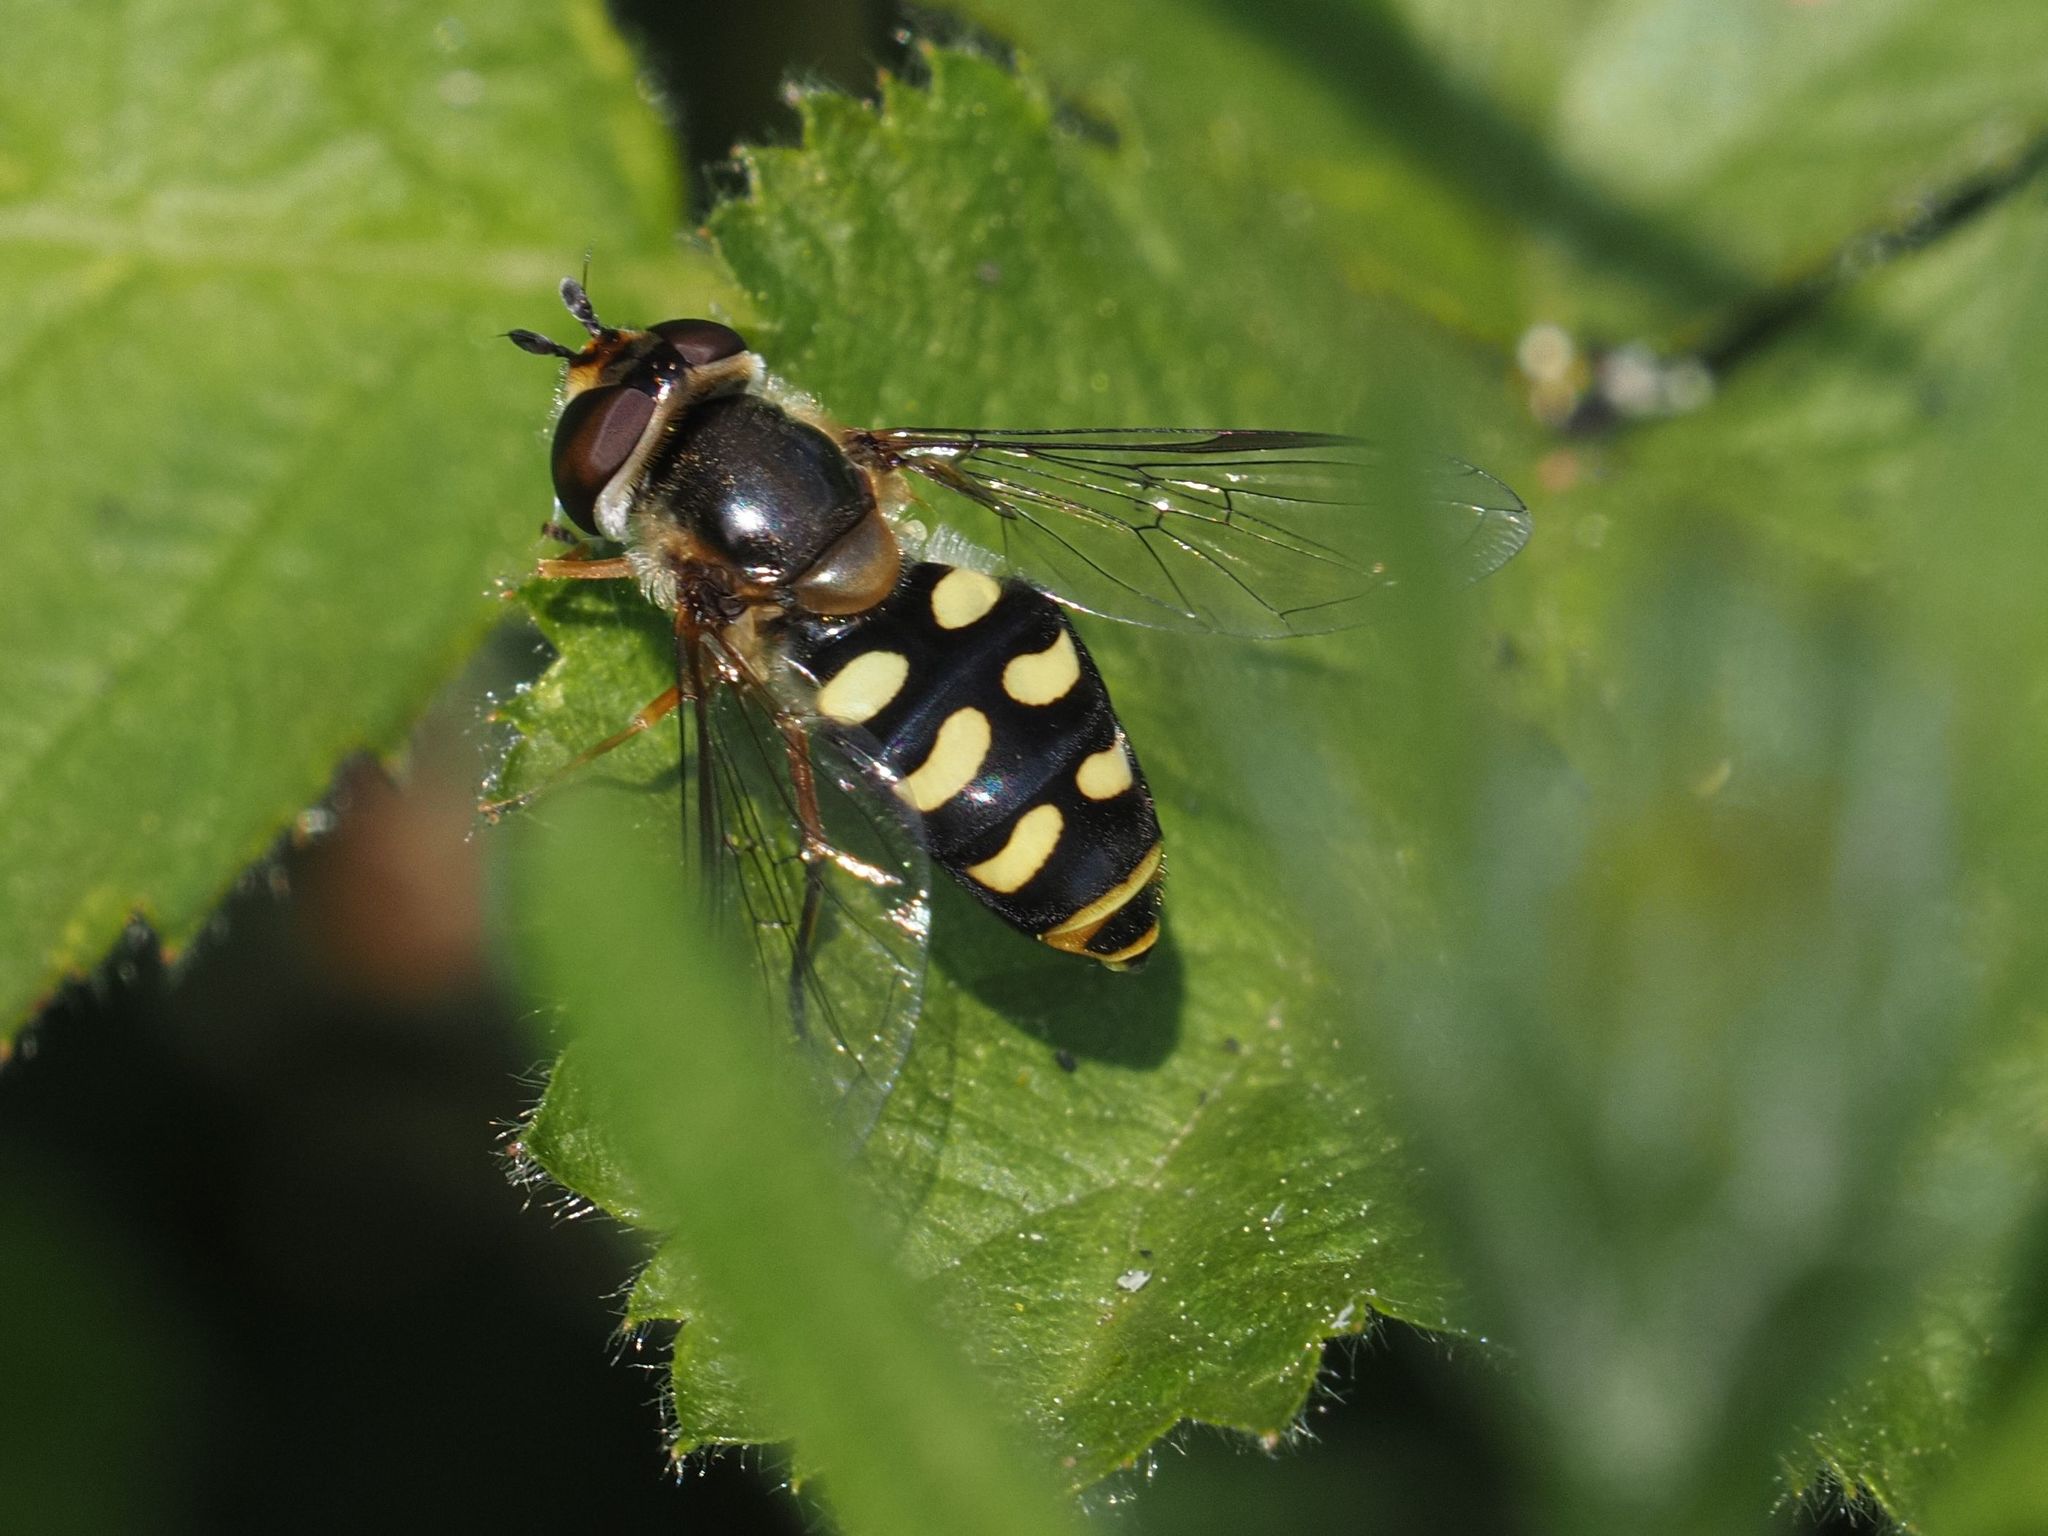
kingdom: Animalia
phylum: Arthropoda
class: Insecta
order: Diptera
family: Syrphidae
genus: Eupeodes
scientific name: Eupeodes luniger
